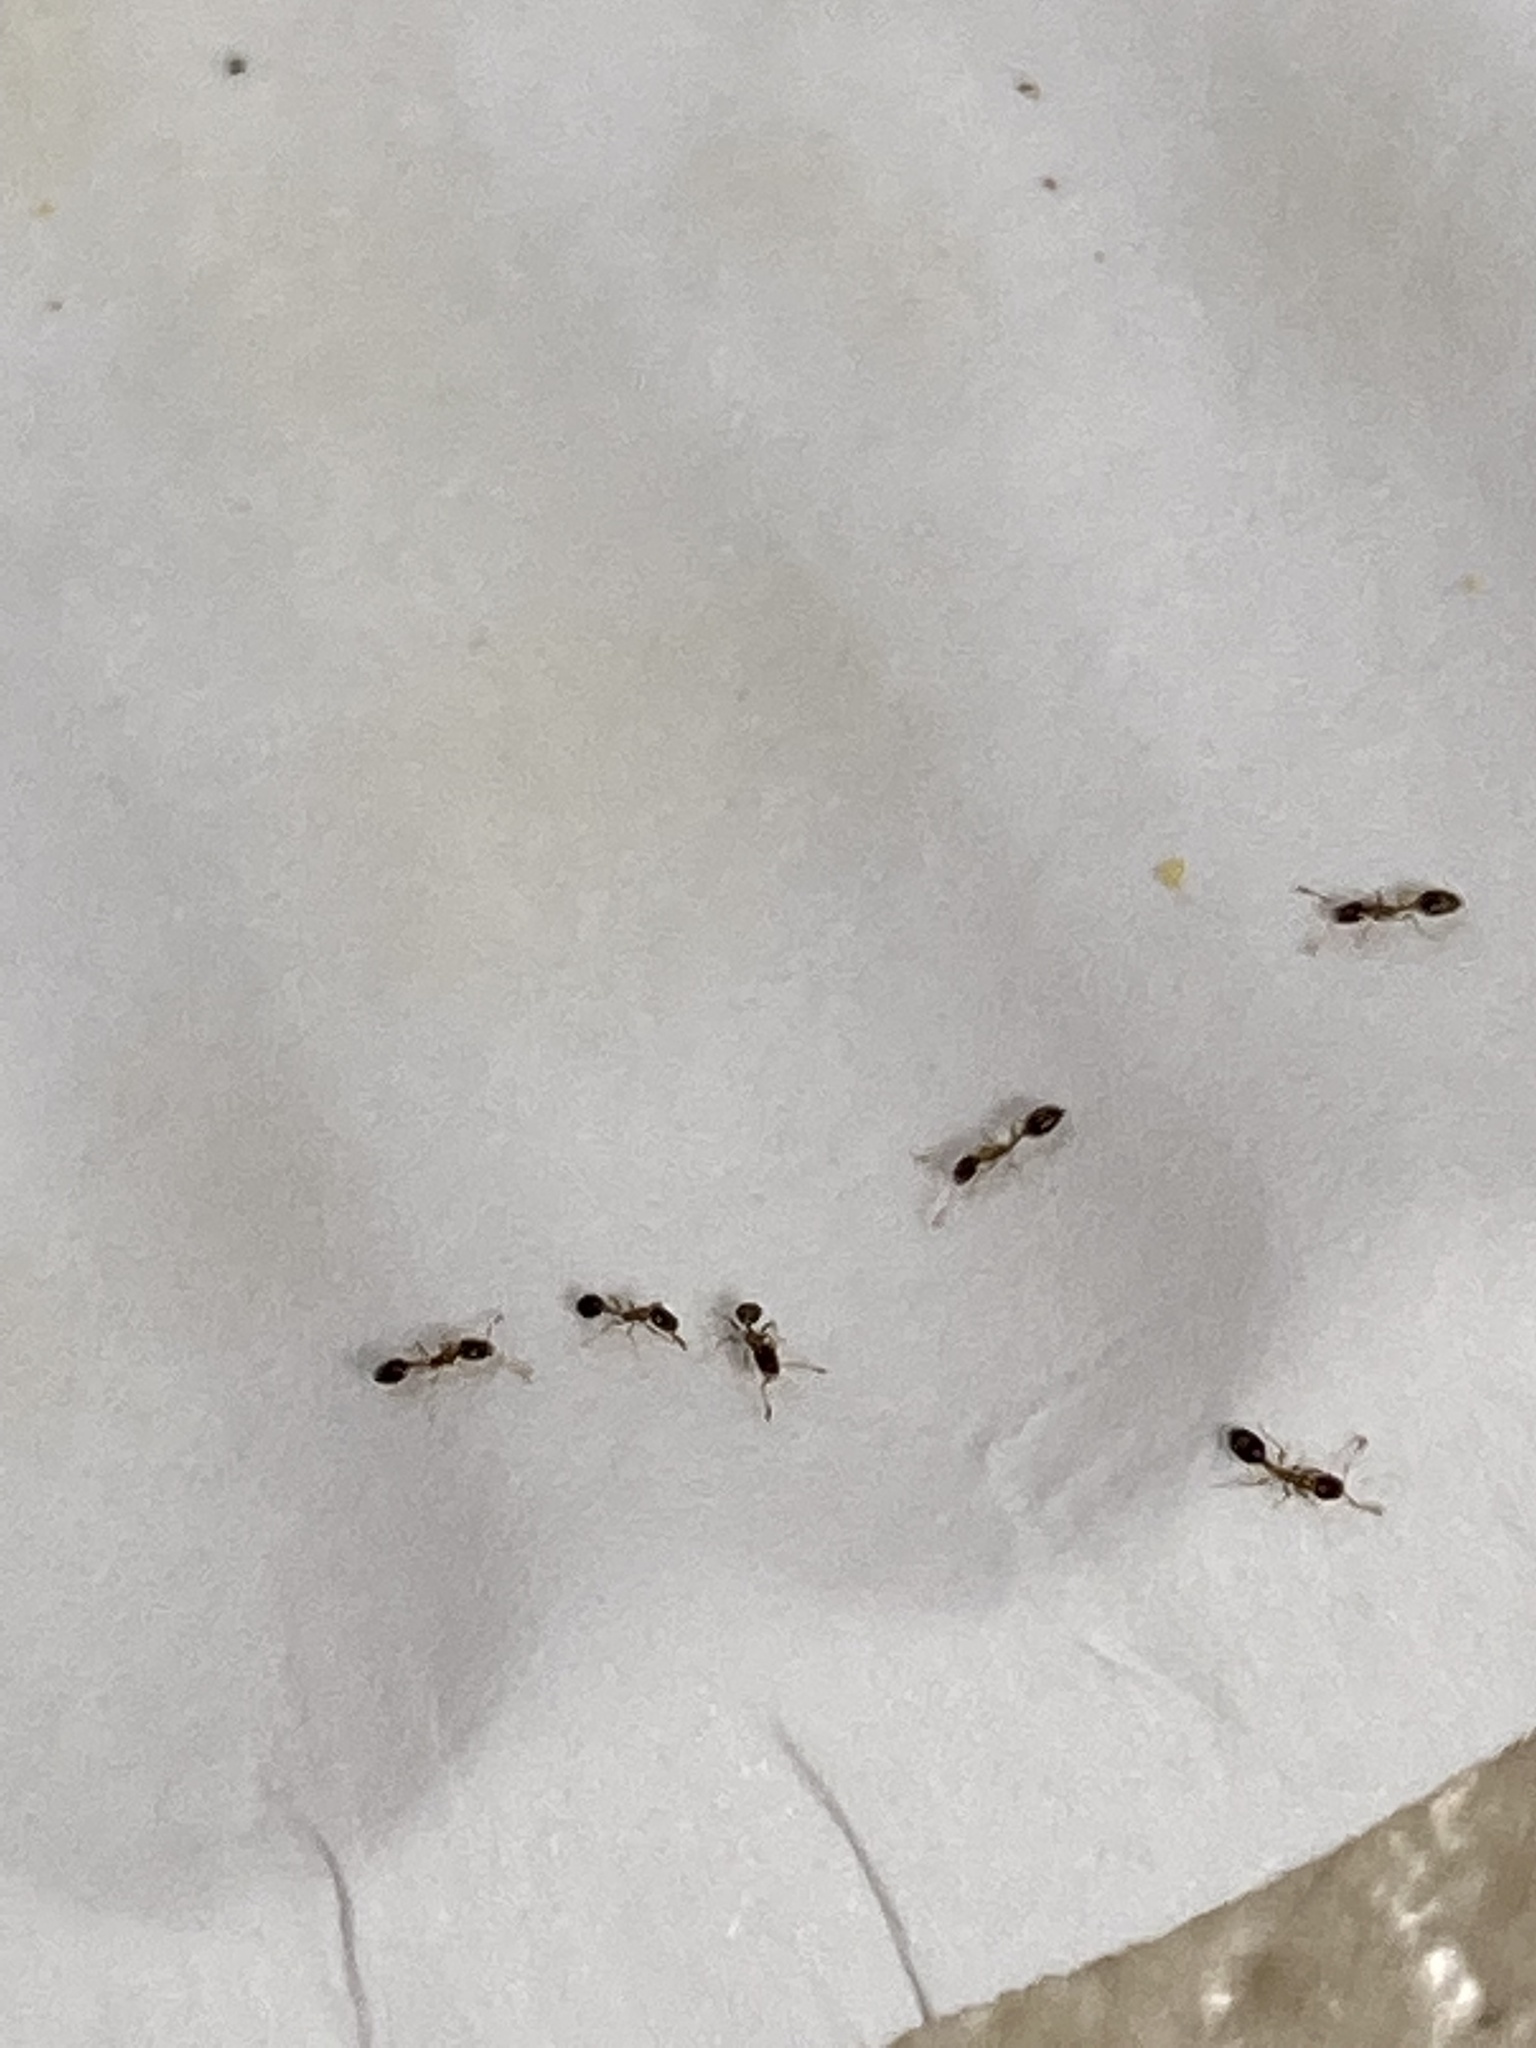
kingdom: Animalia
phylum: Arthropoda
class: Insecta
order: Hymenoptera
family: Formicidae
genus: Monomorium
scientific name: Monomorium floricola
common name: Bicolored trailing ant
